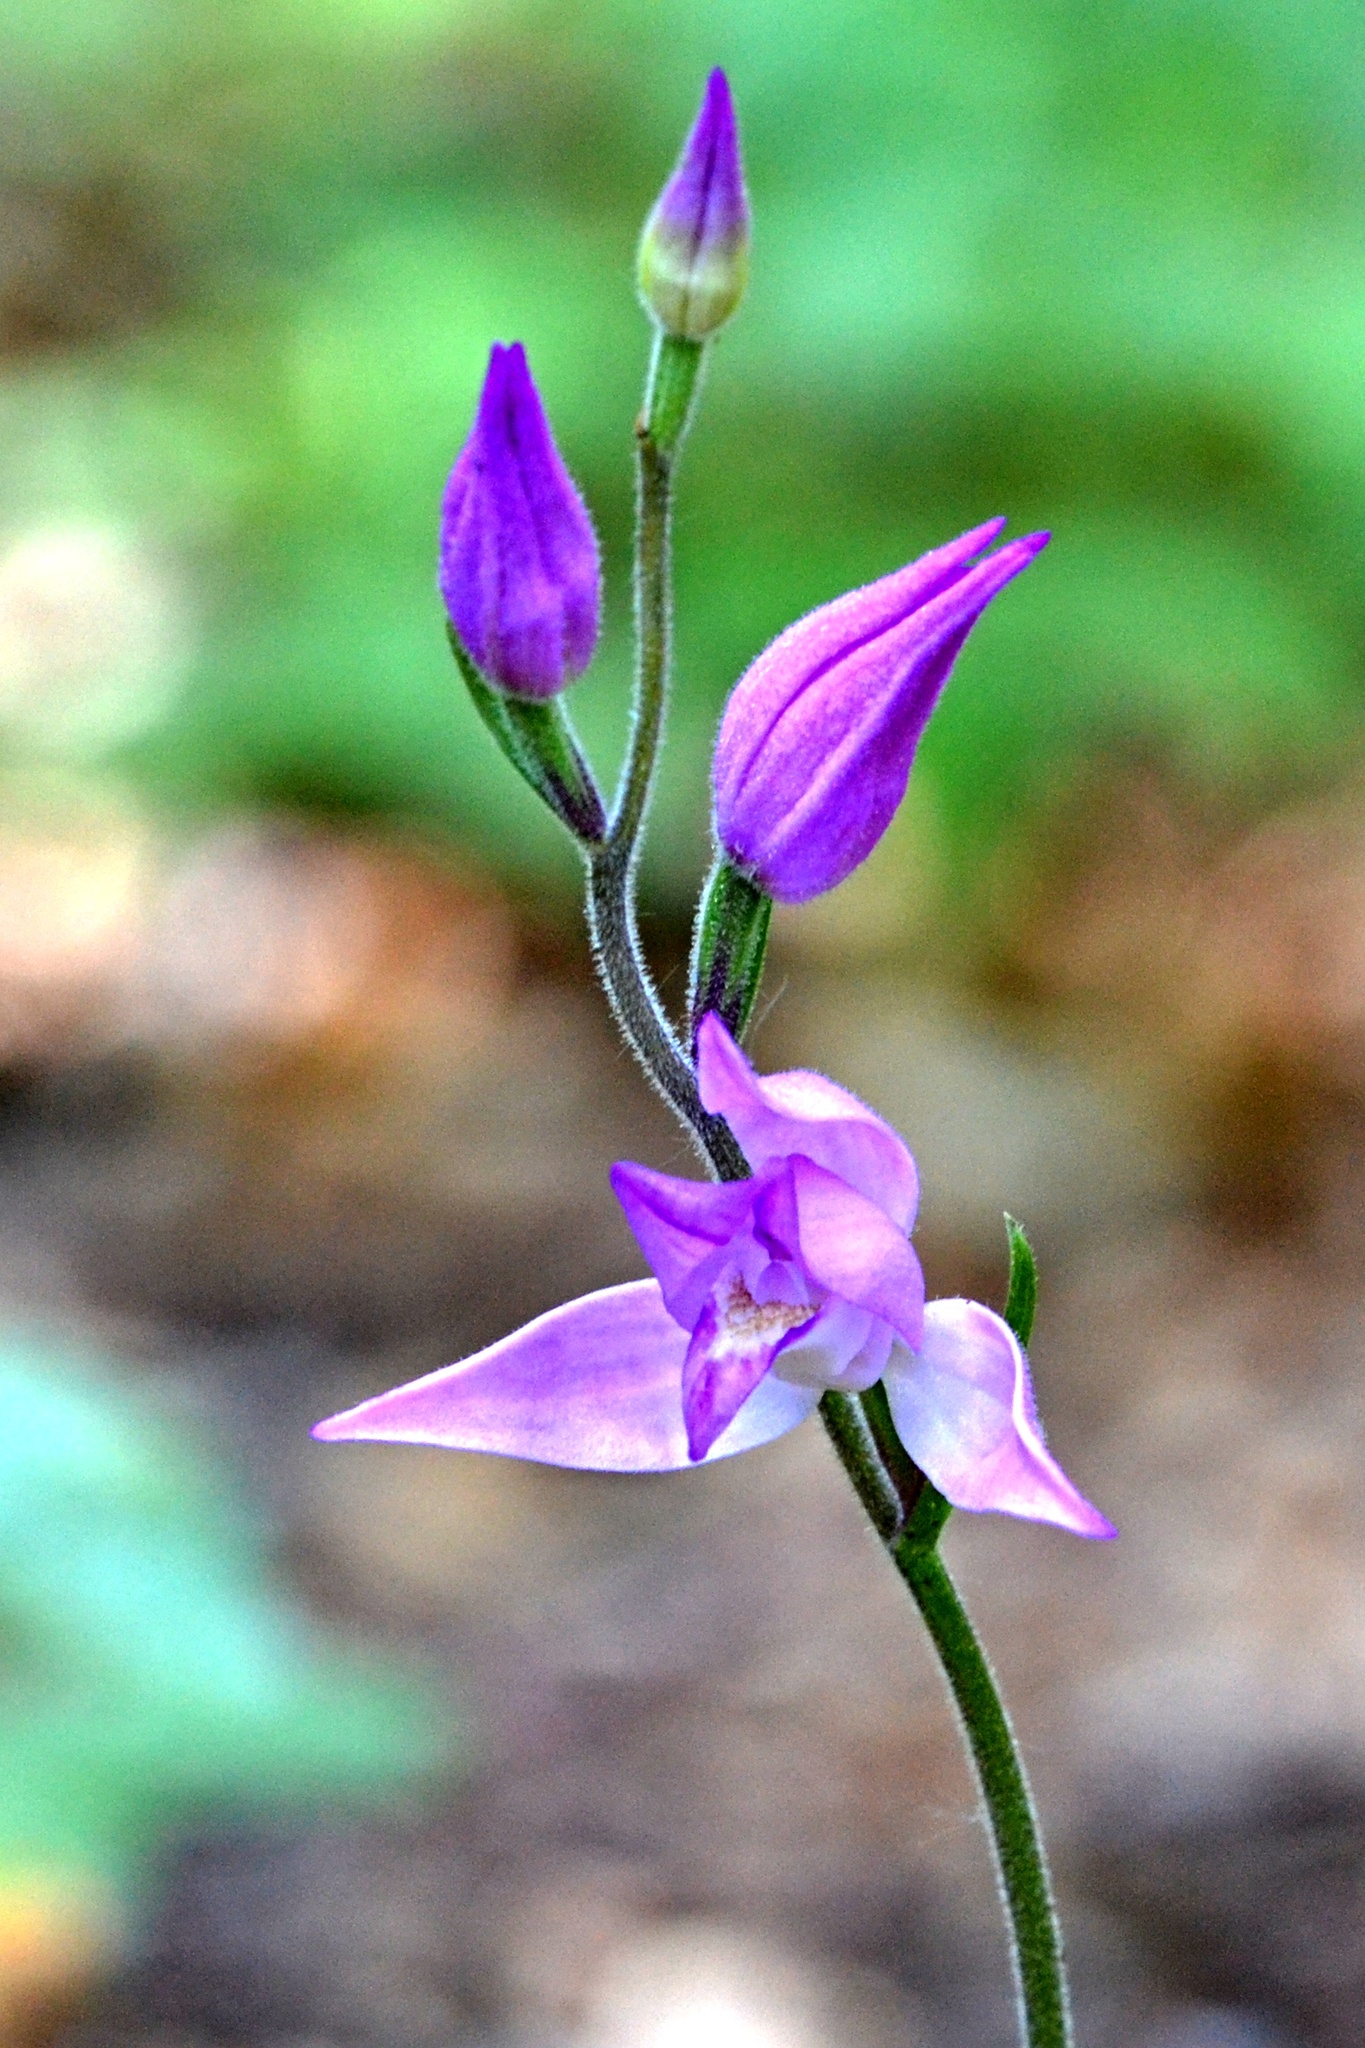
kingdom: Plantae
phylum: Tracheophyta
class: Liliopsida
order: Asparagales
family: Orchidaceae
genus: Cephalanthera
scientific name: Cephalanthera rubra
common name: Red helleborine
